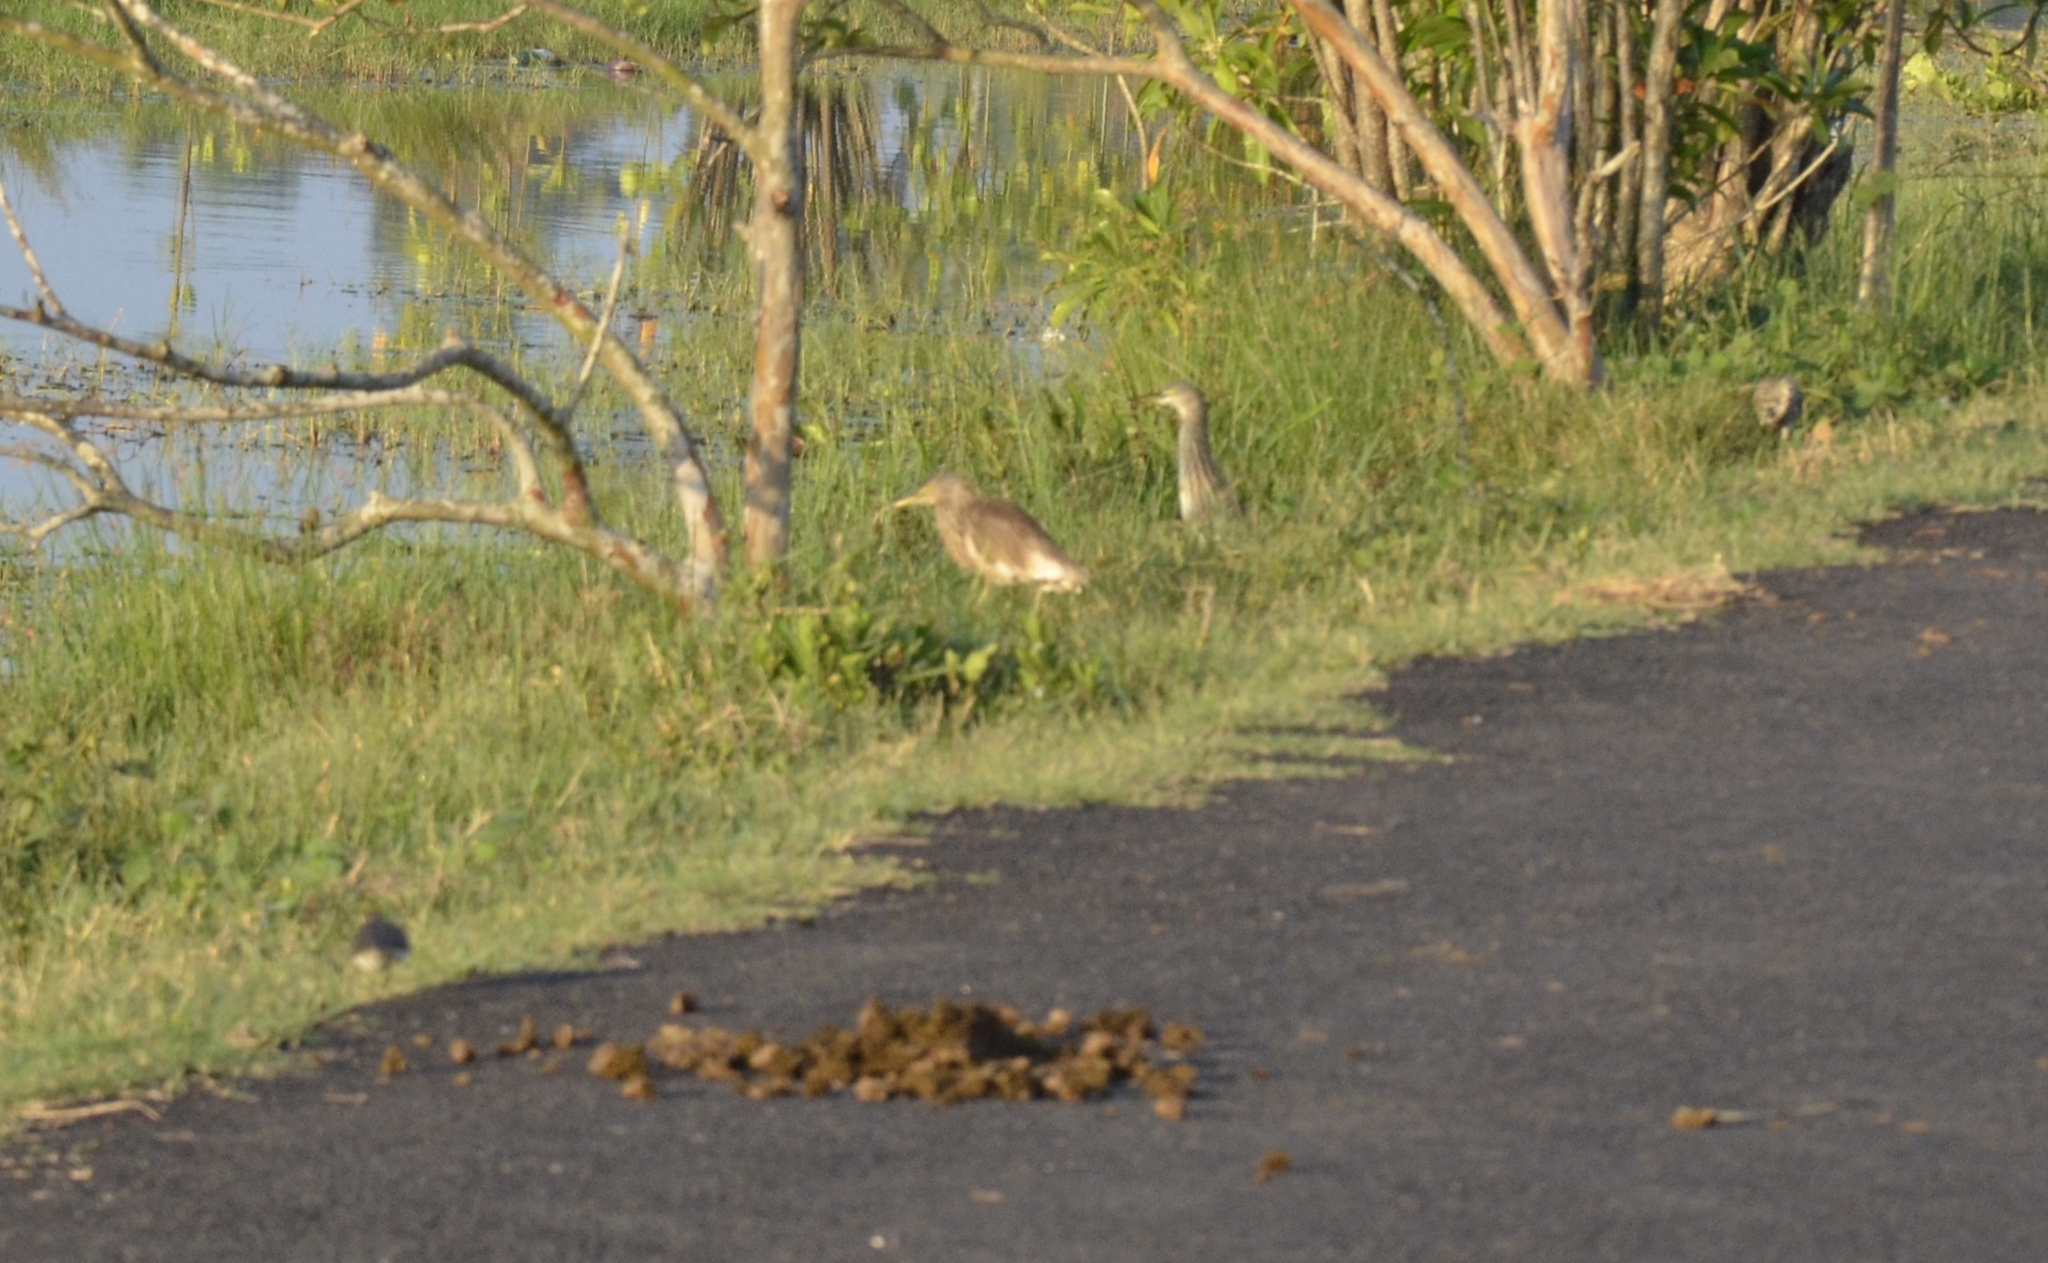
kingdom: Animalia
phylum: Chordata
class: Aves
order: Pelecaniformes
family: Ardeidae
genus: Ardeola
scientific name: Ardeola grayii
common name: Indian pond heron
